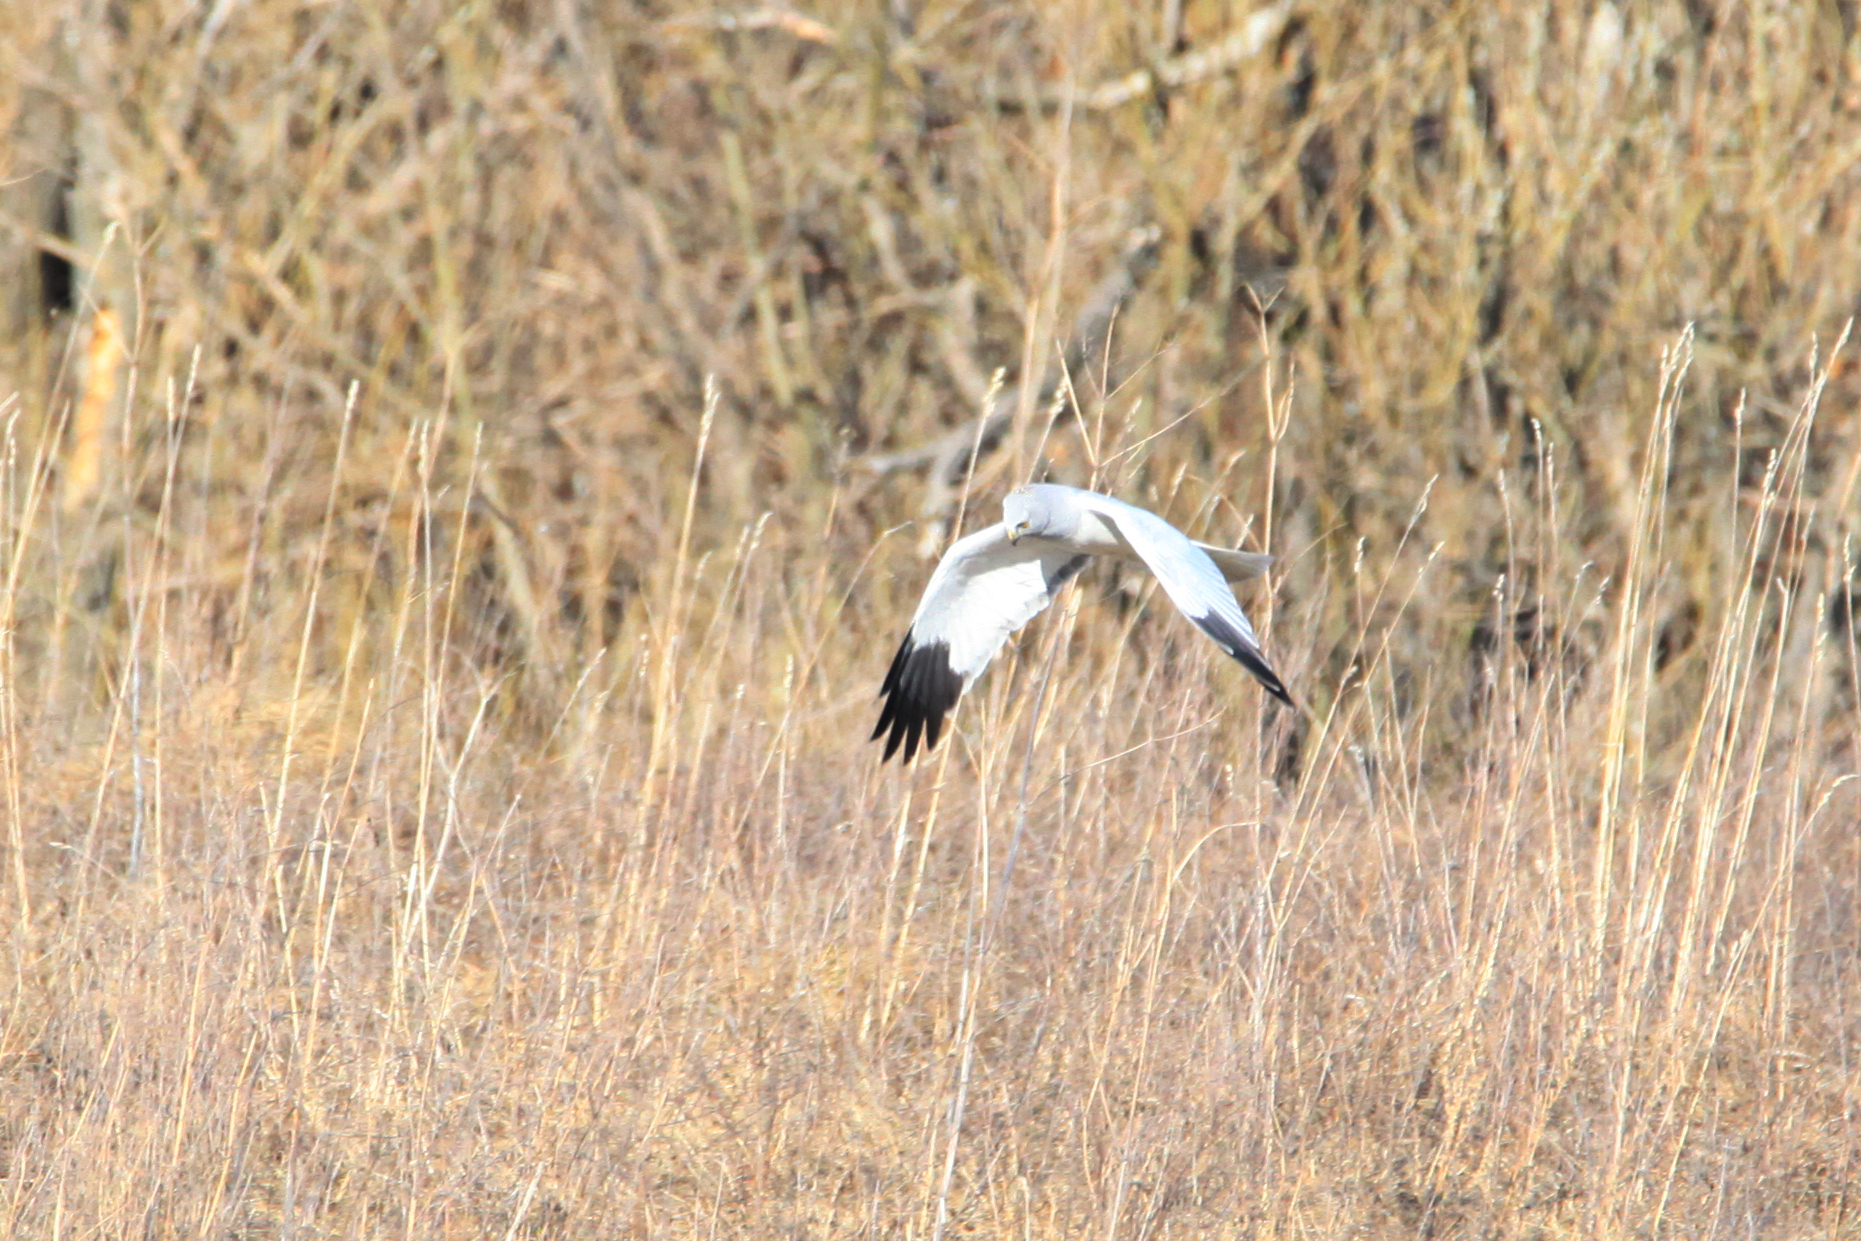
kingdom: Animalia
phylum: Chordata
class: Aves
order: Accipitriformes
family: Accipitridae
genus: Circus
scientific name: Circus cyaneus
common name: Hen harrier
